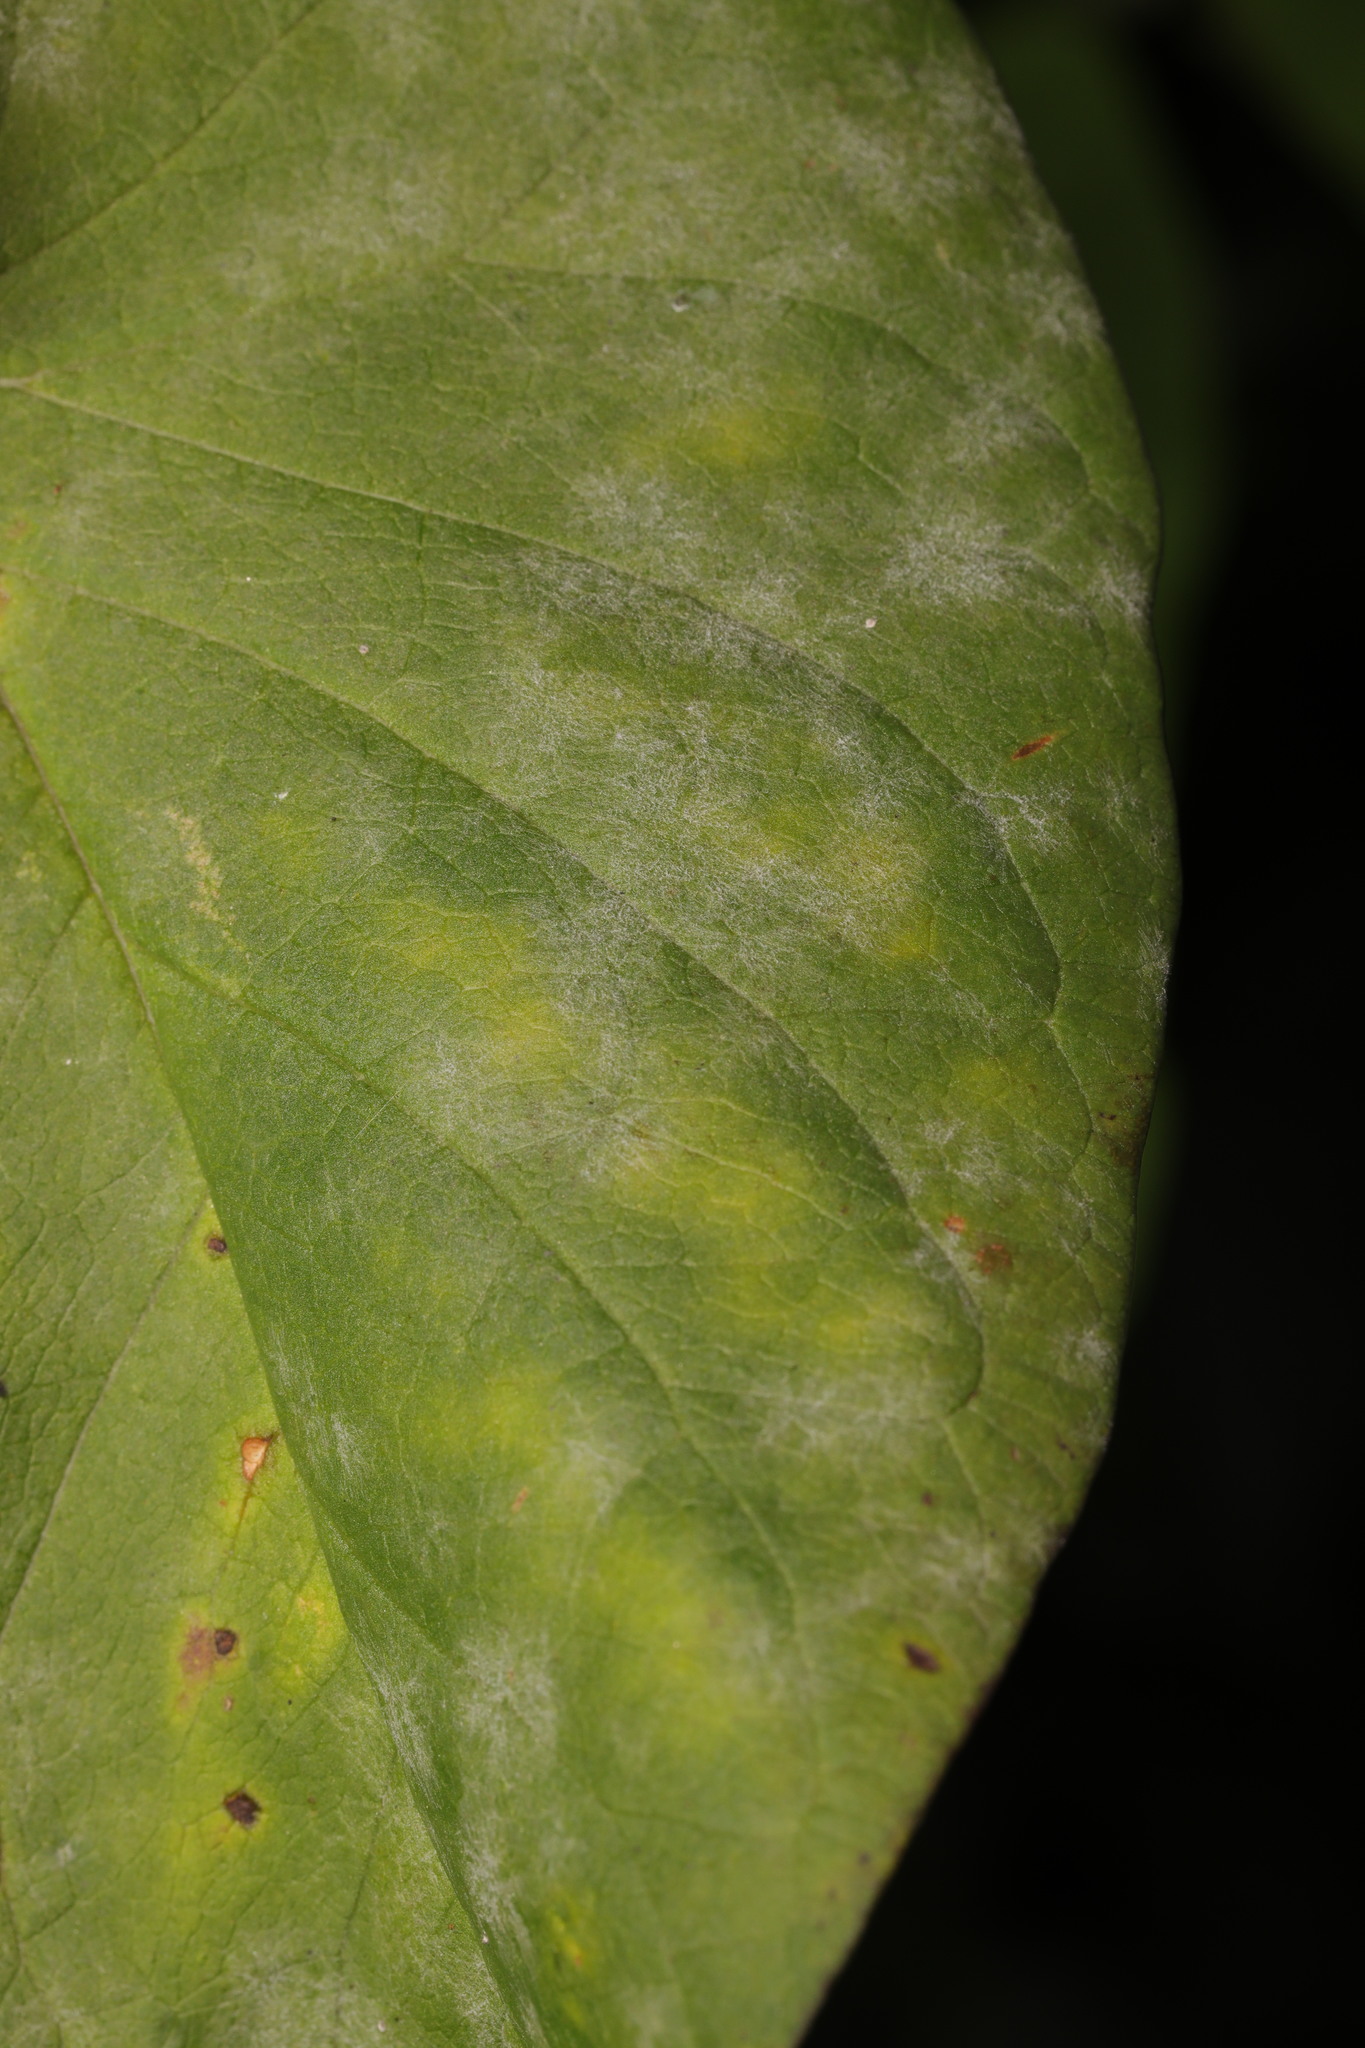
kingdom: Fungi
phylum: Ascomycota
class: Leotiomycetes
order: Helotiales
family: Erysiphaceae
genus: Erysiphe
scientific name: Erysiphe convolvuli
